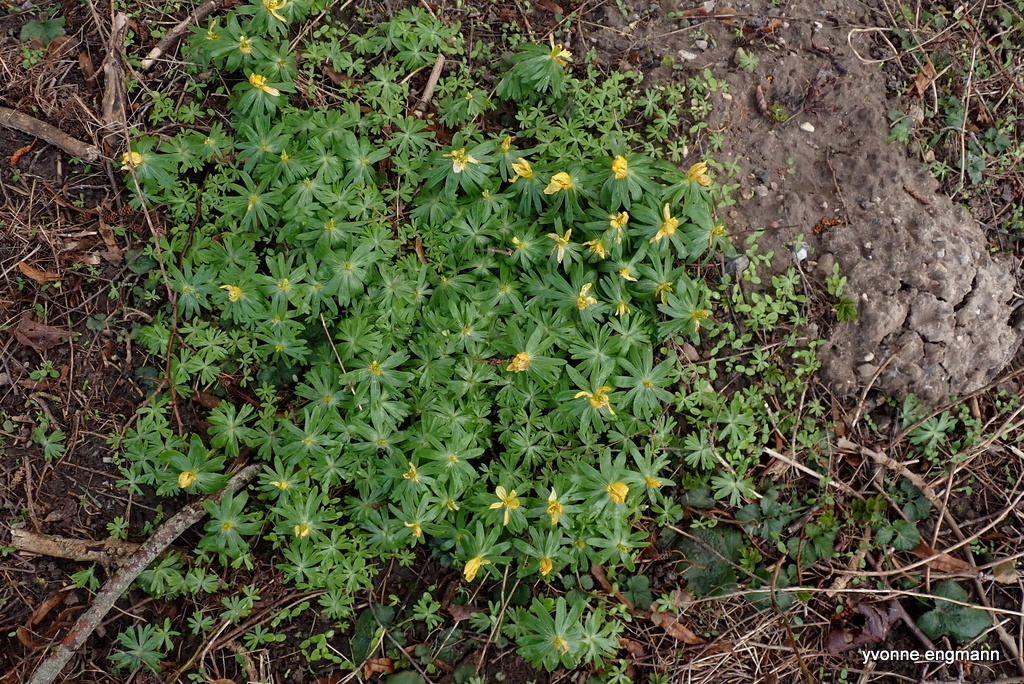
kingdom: Plantae
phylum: Tracheophyta
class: Magnoliopsida
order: Ranunculales
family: Ranunculaceae
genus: Eranthis
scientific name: Eranthis hyemalis
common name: Winter aconite
